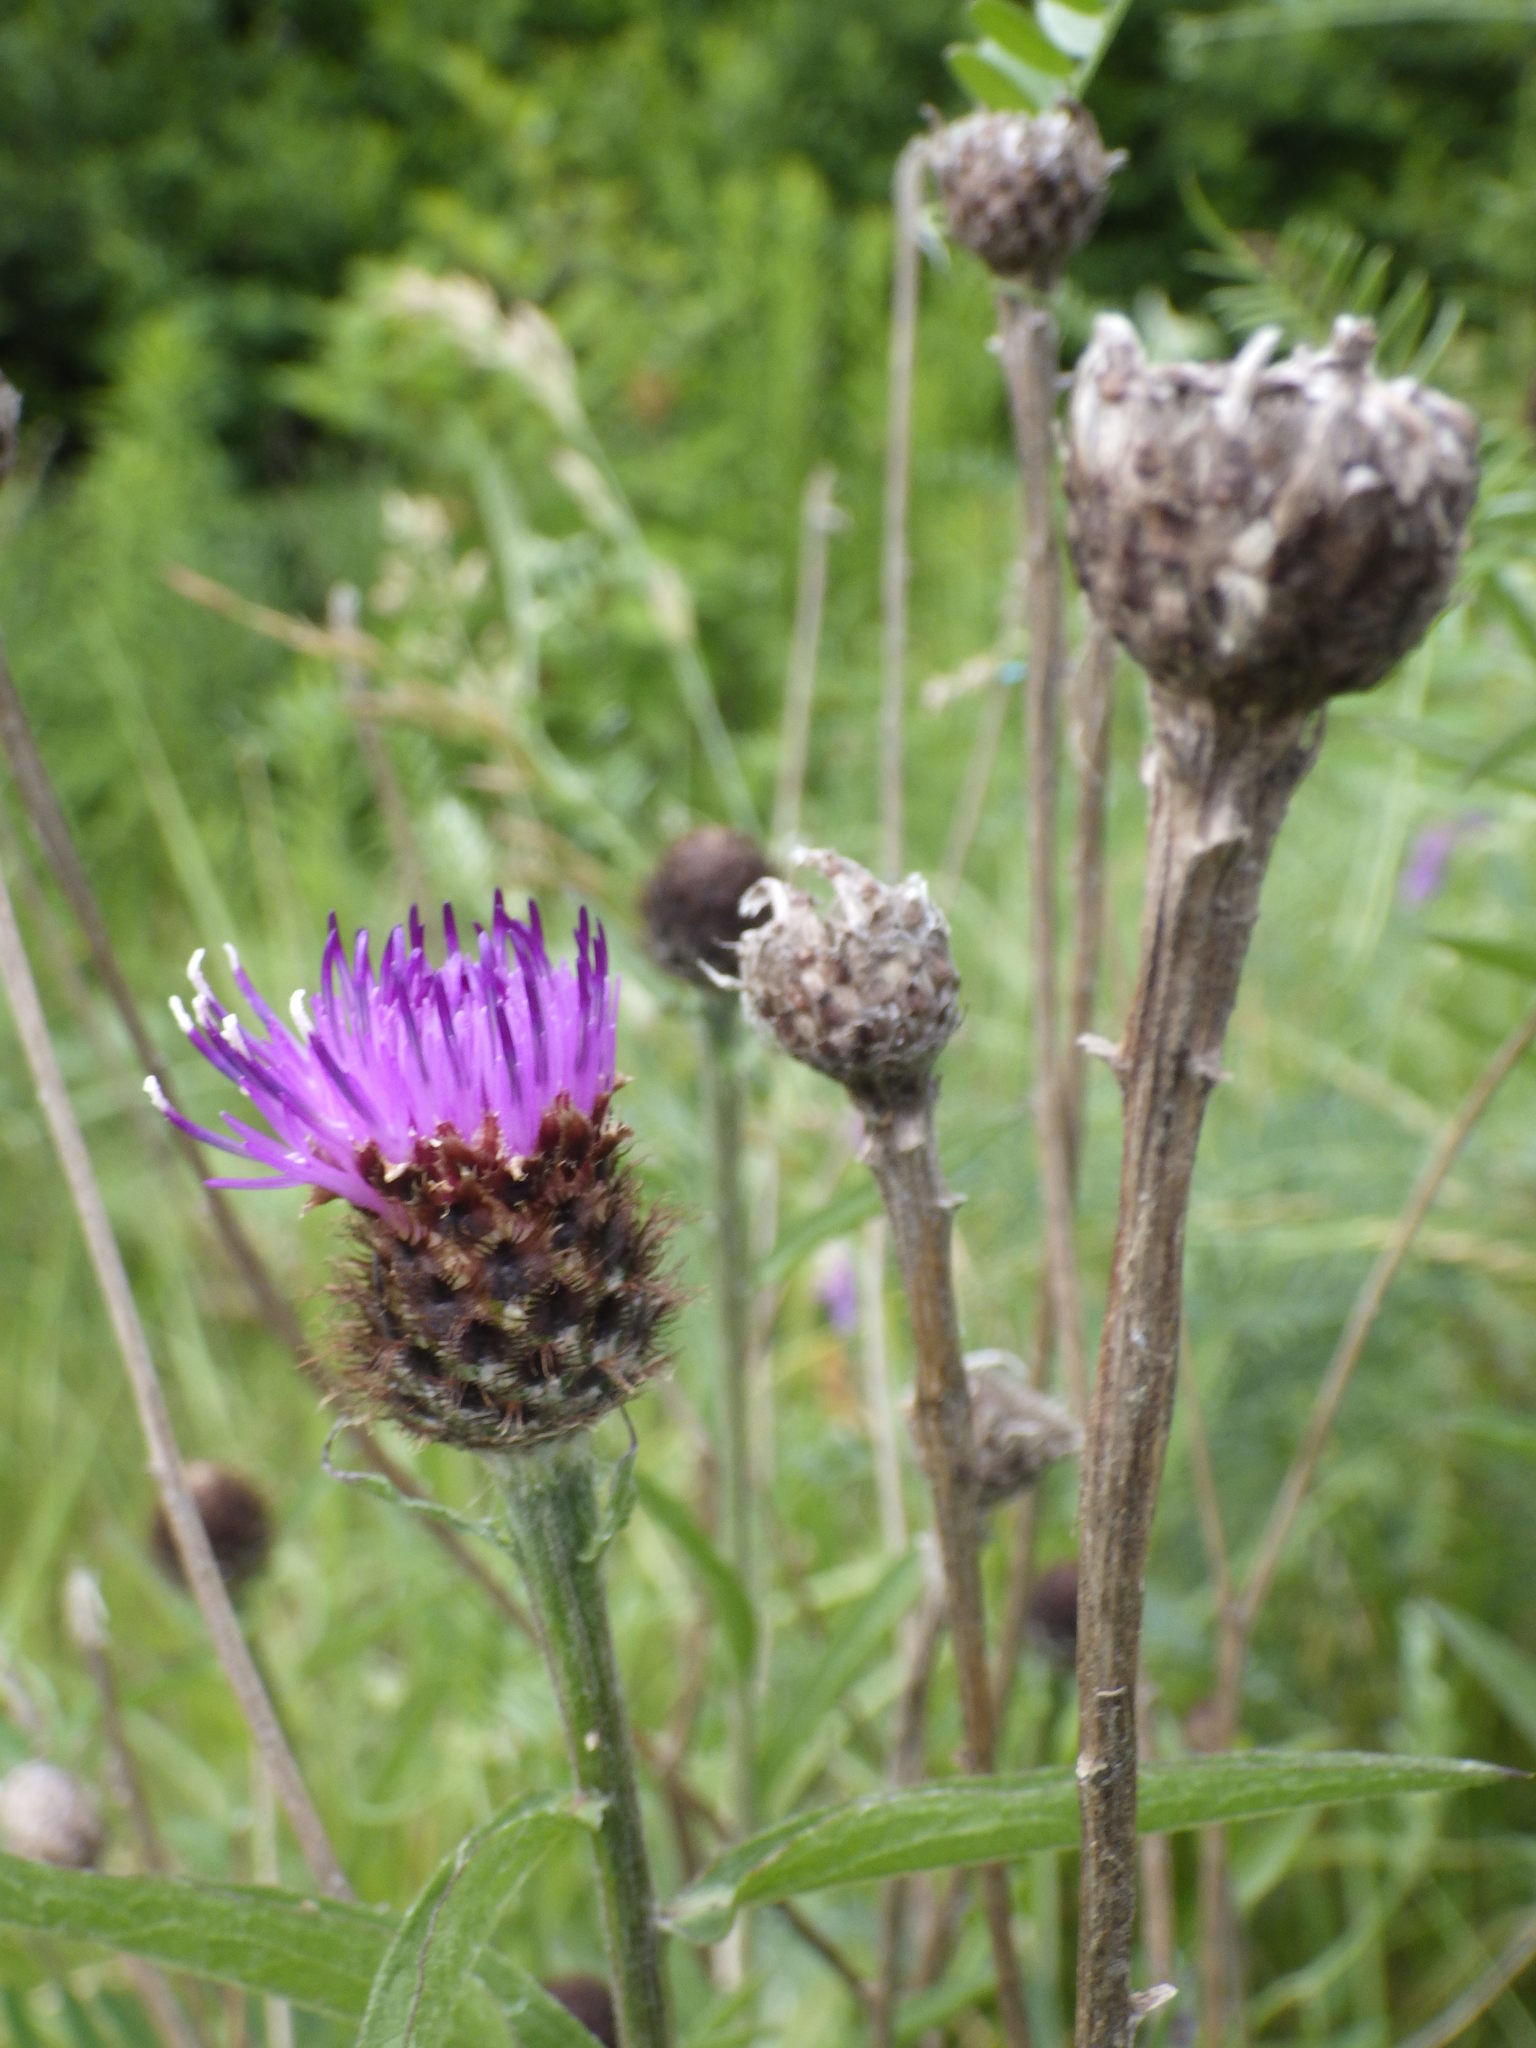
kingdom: Plantae
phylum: Tracheophyta
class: Magnoliopsida
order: Asterales
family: Asteraceae
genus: Centaurea
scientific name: Centaurea nigra
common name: Lesser knapweed
